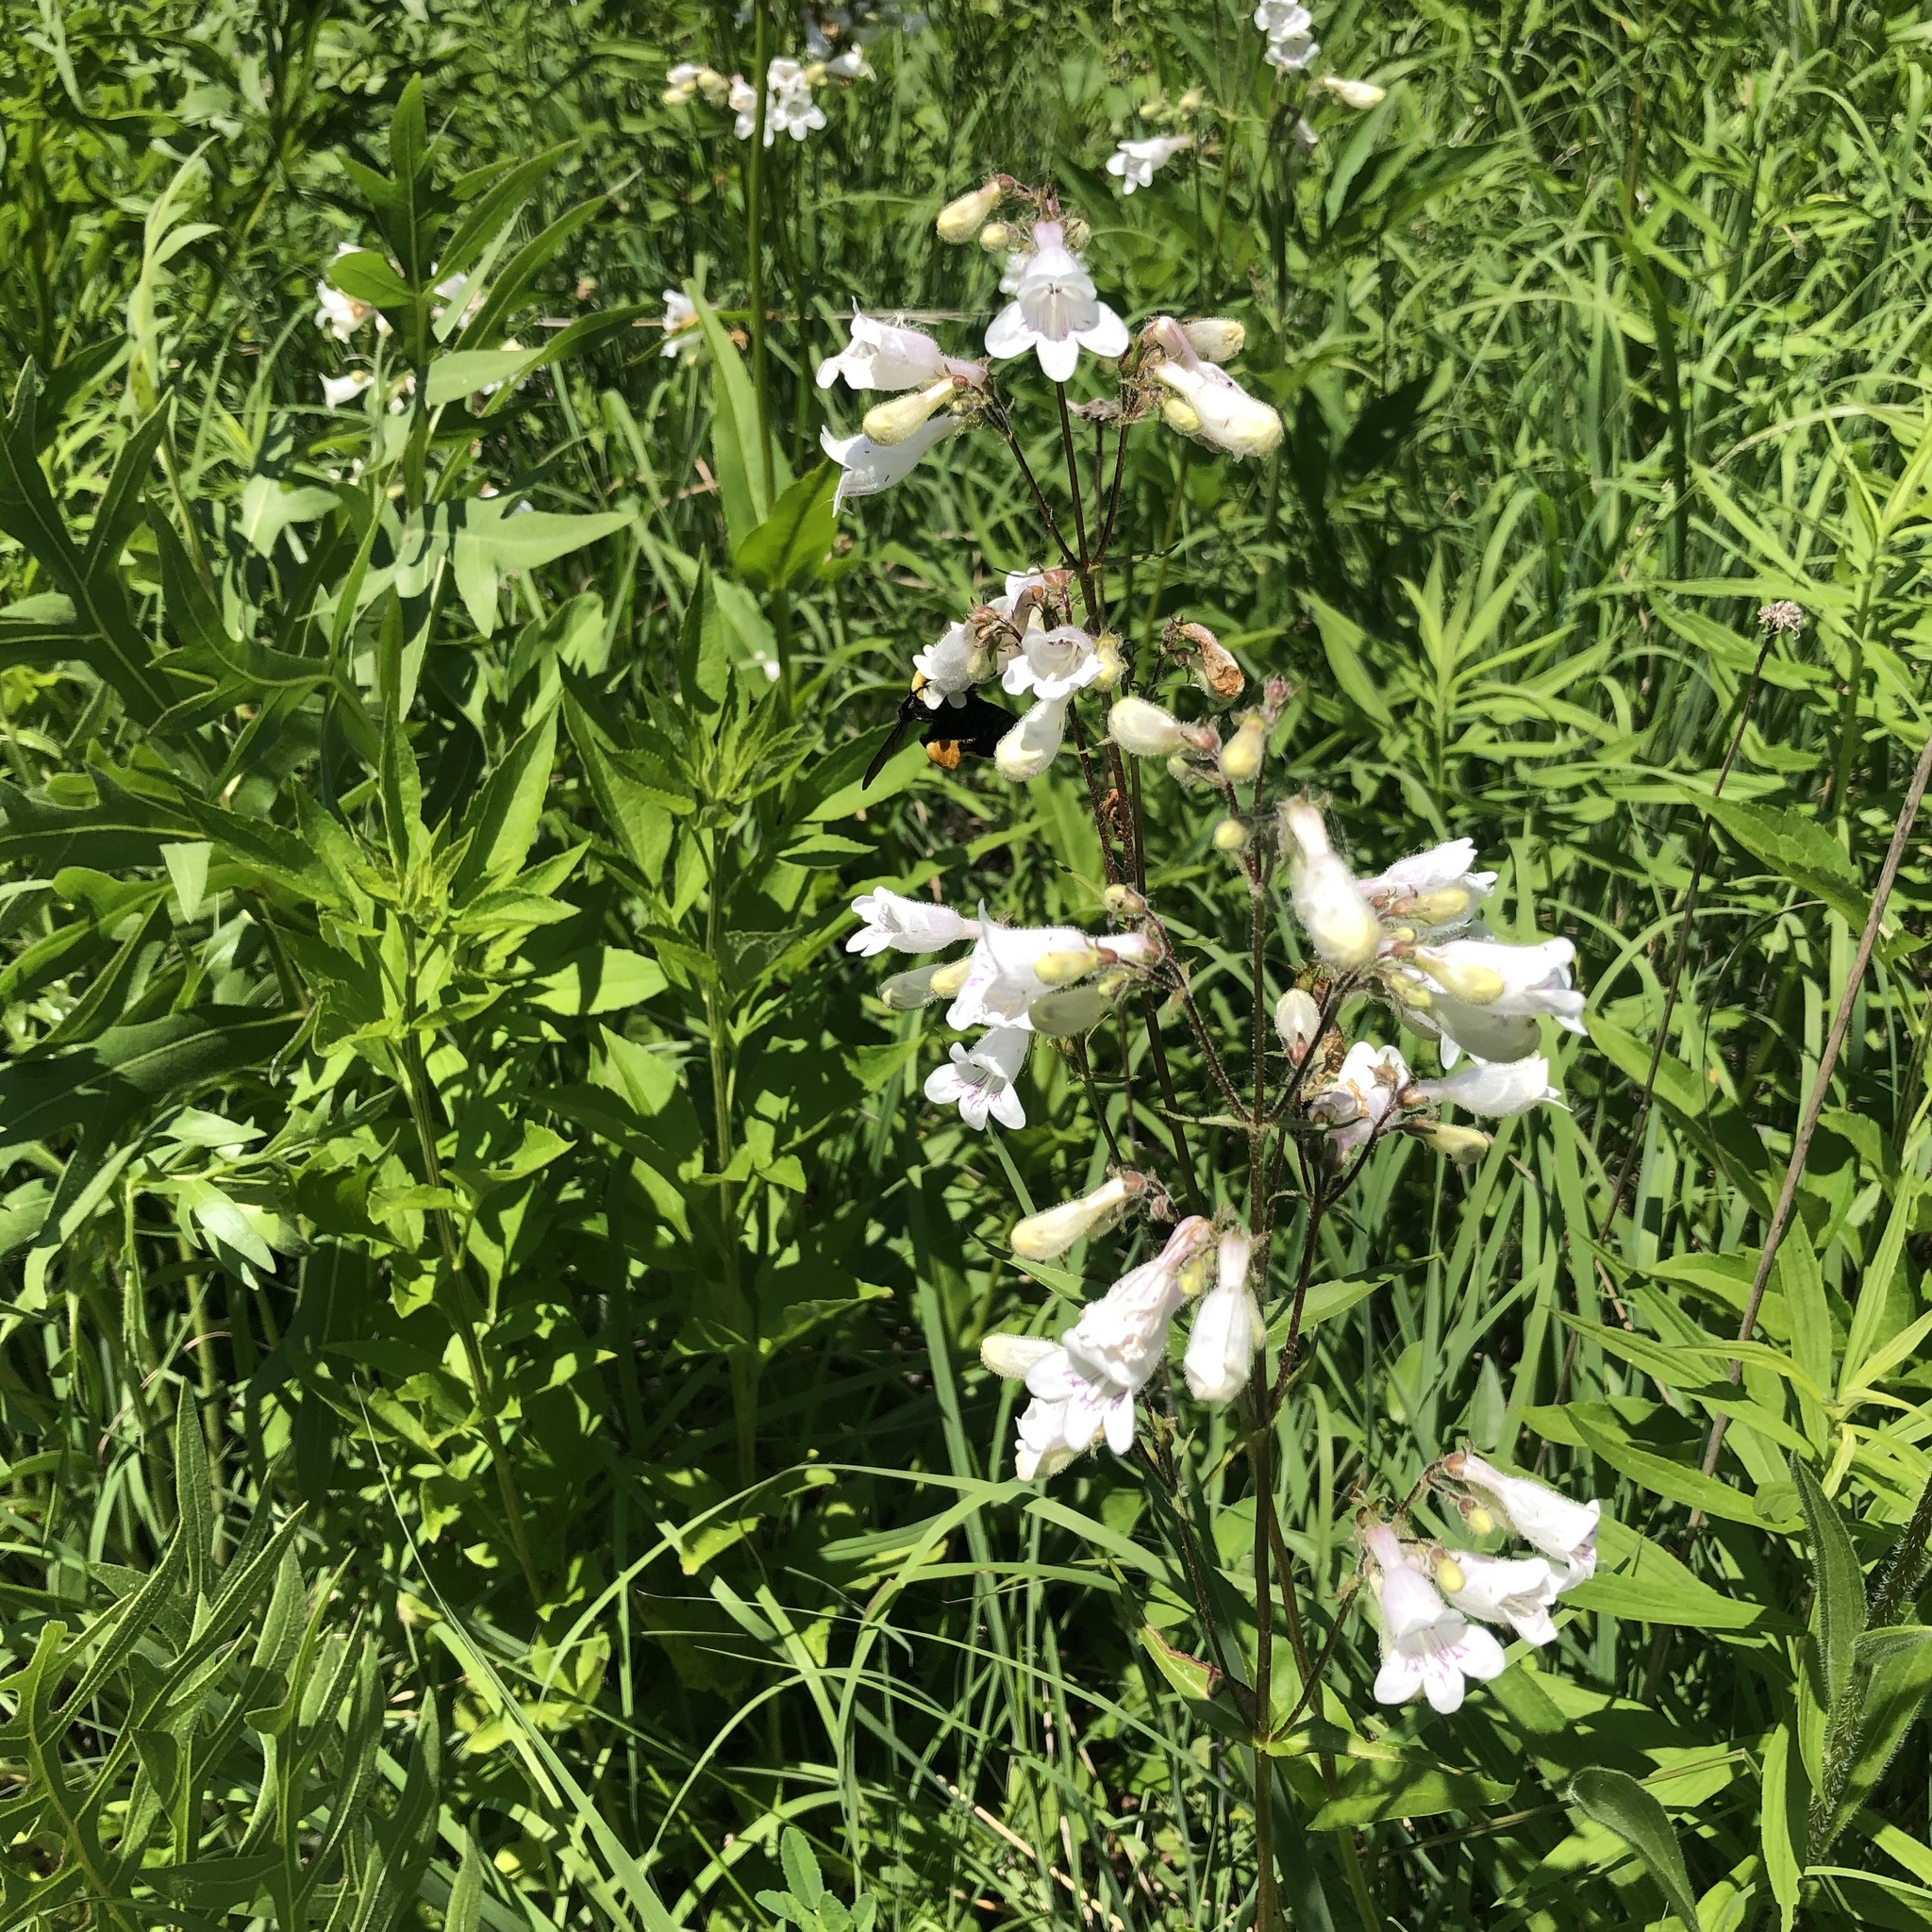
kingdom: Plantae
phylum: Tracheophyta
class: Magnoliopsida
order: Lamiales
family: Plantaginaceae
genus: Penstemon
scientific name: Penstemon digitalis
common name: Foxglove beardtongue
